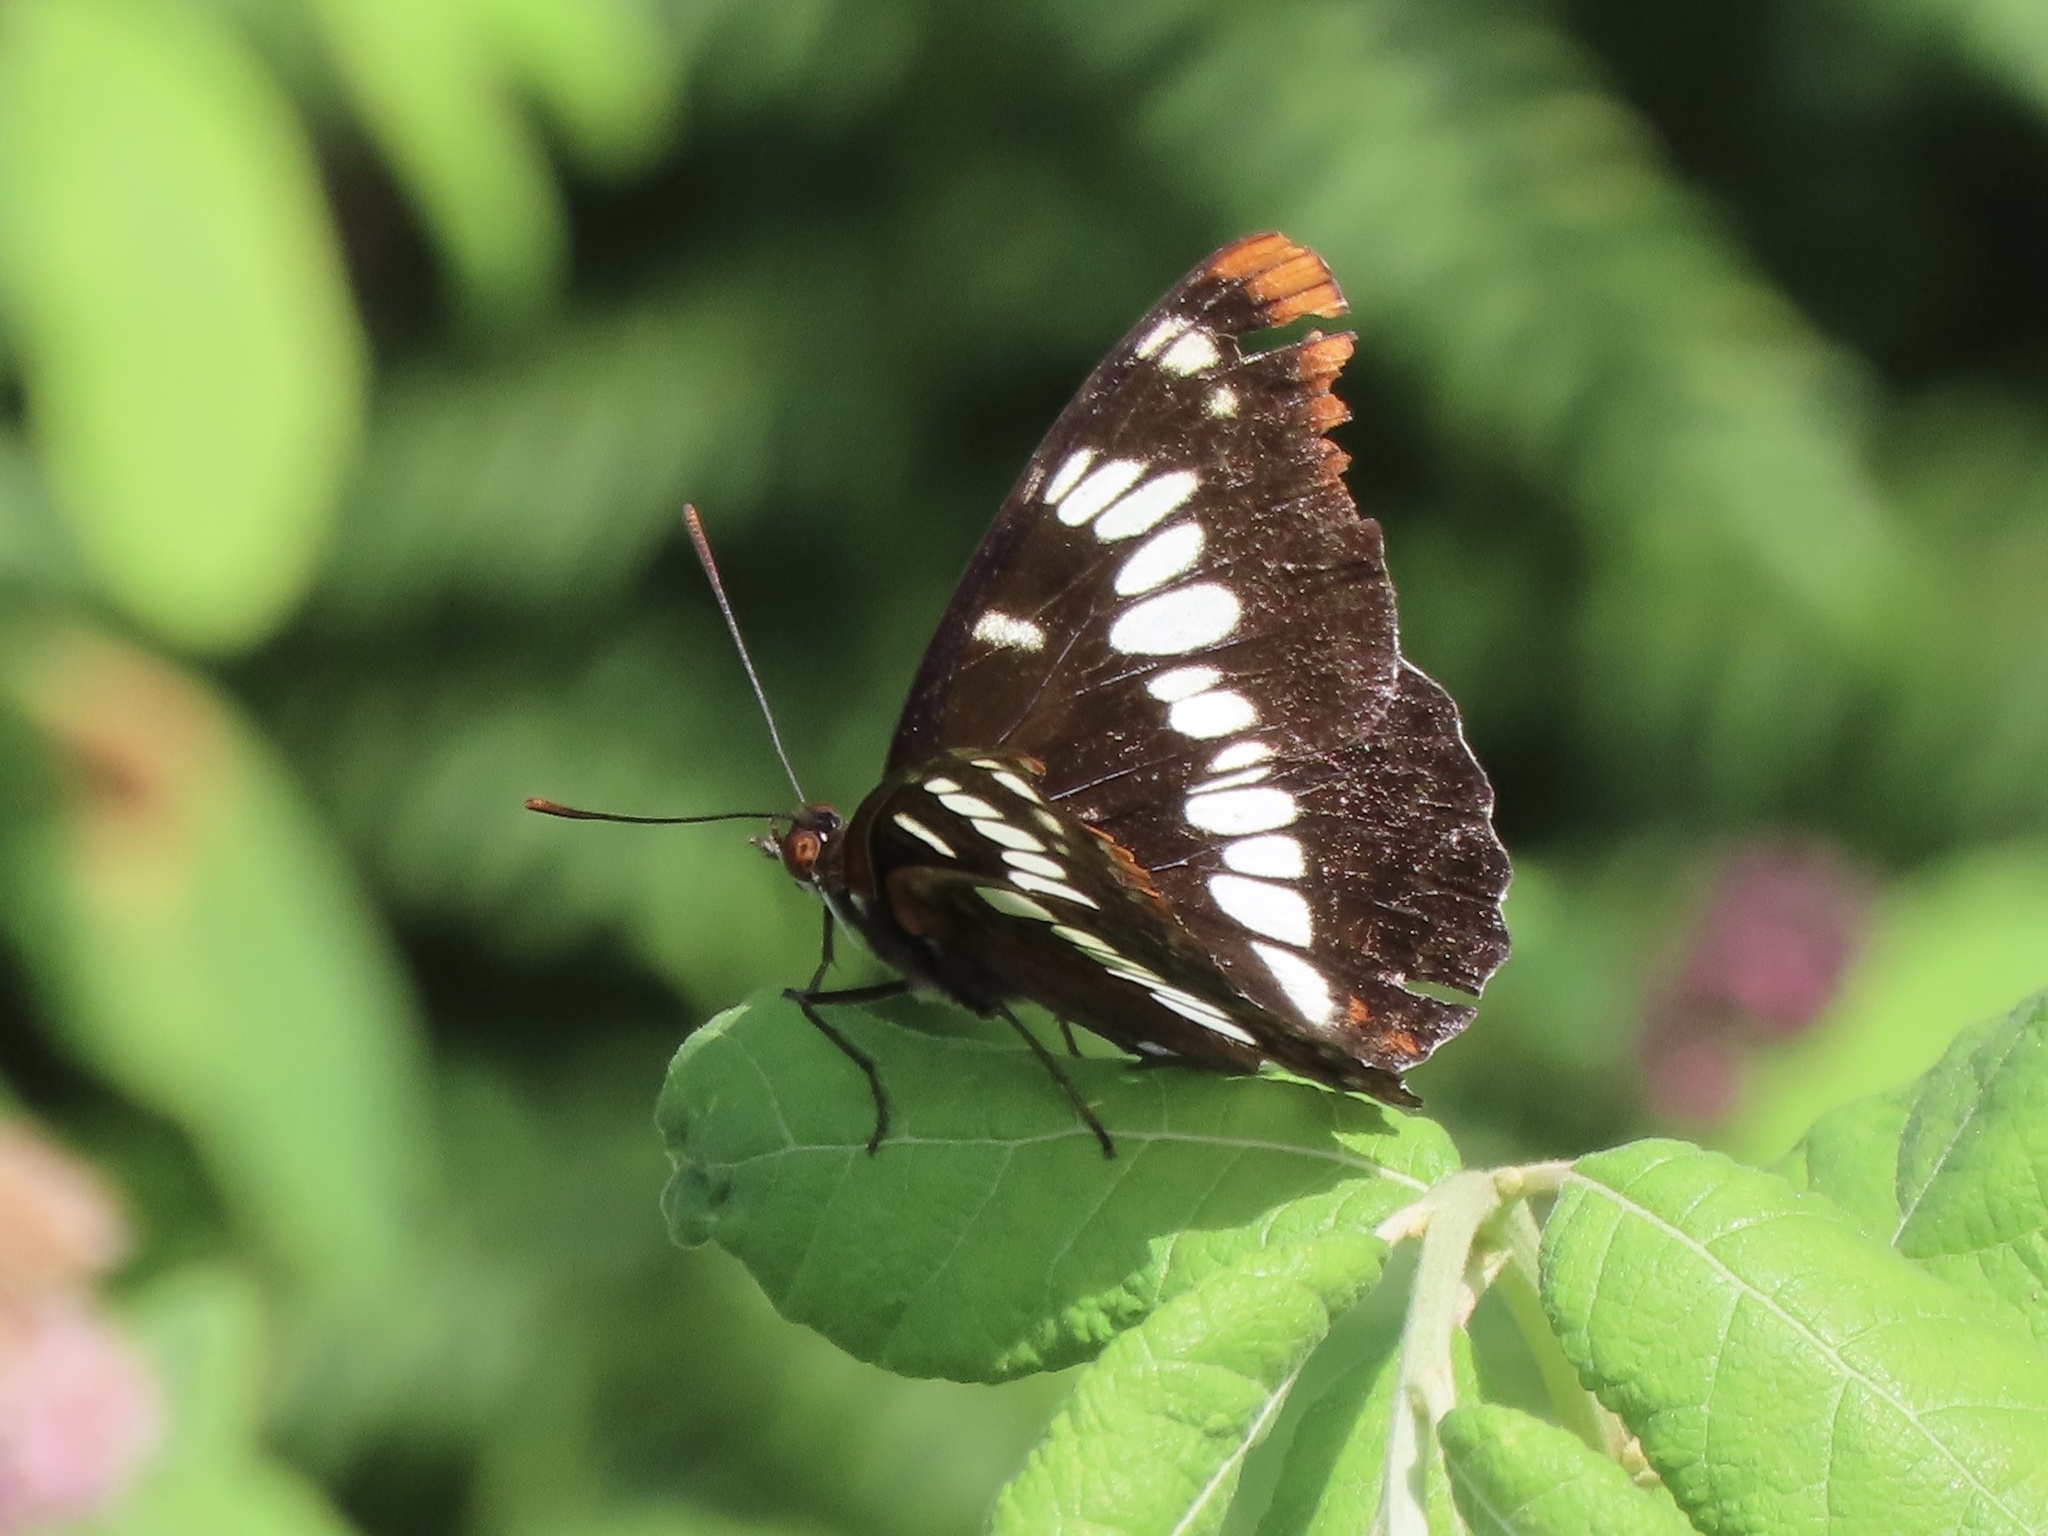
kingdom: Animalia
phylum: Arthropoda
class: Insecta
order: Lepidoptera
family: Nymphalidae
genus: Limenitis
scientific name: Limenitis lorquini
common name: Lorquin's admiral
